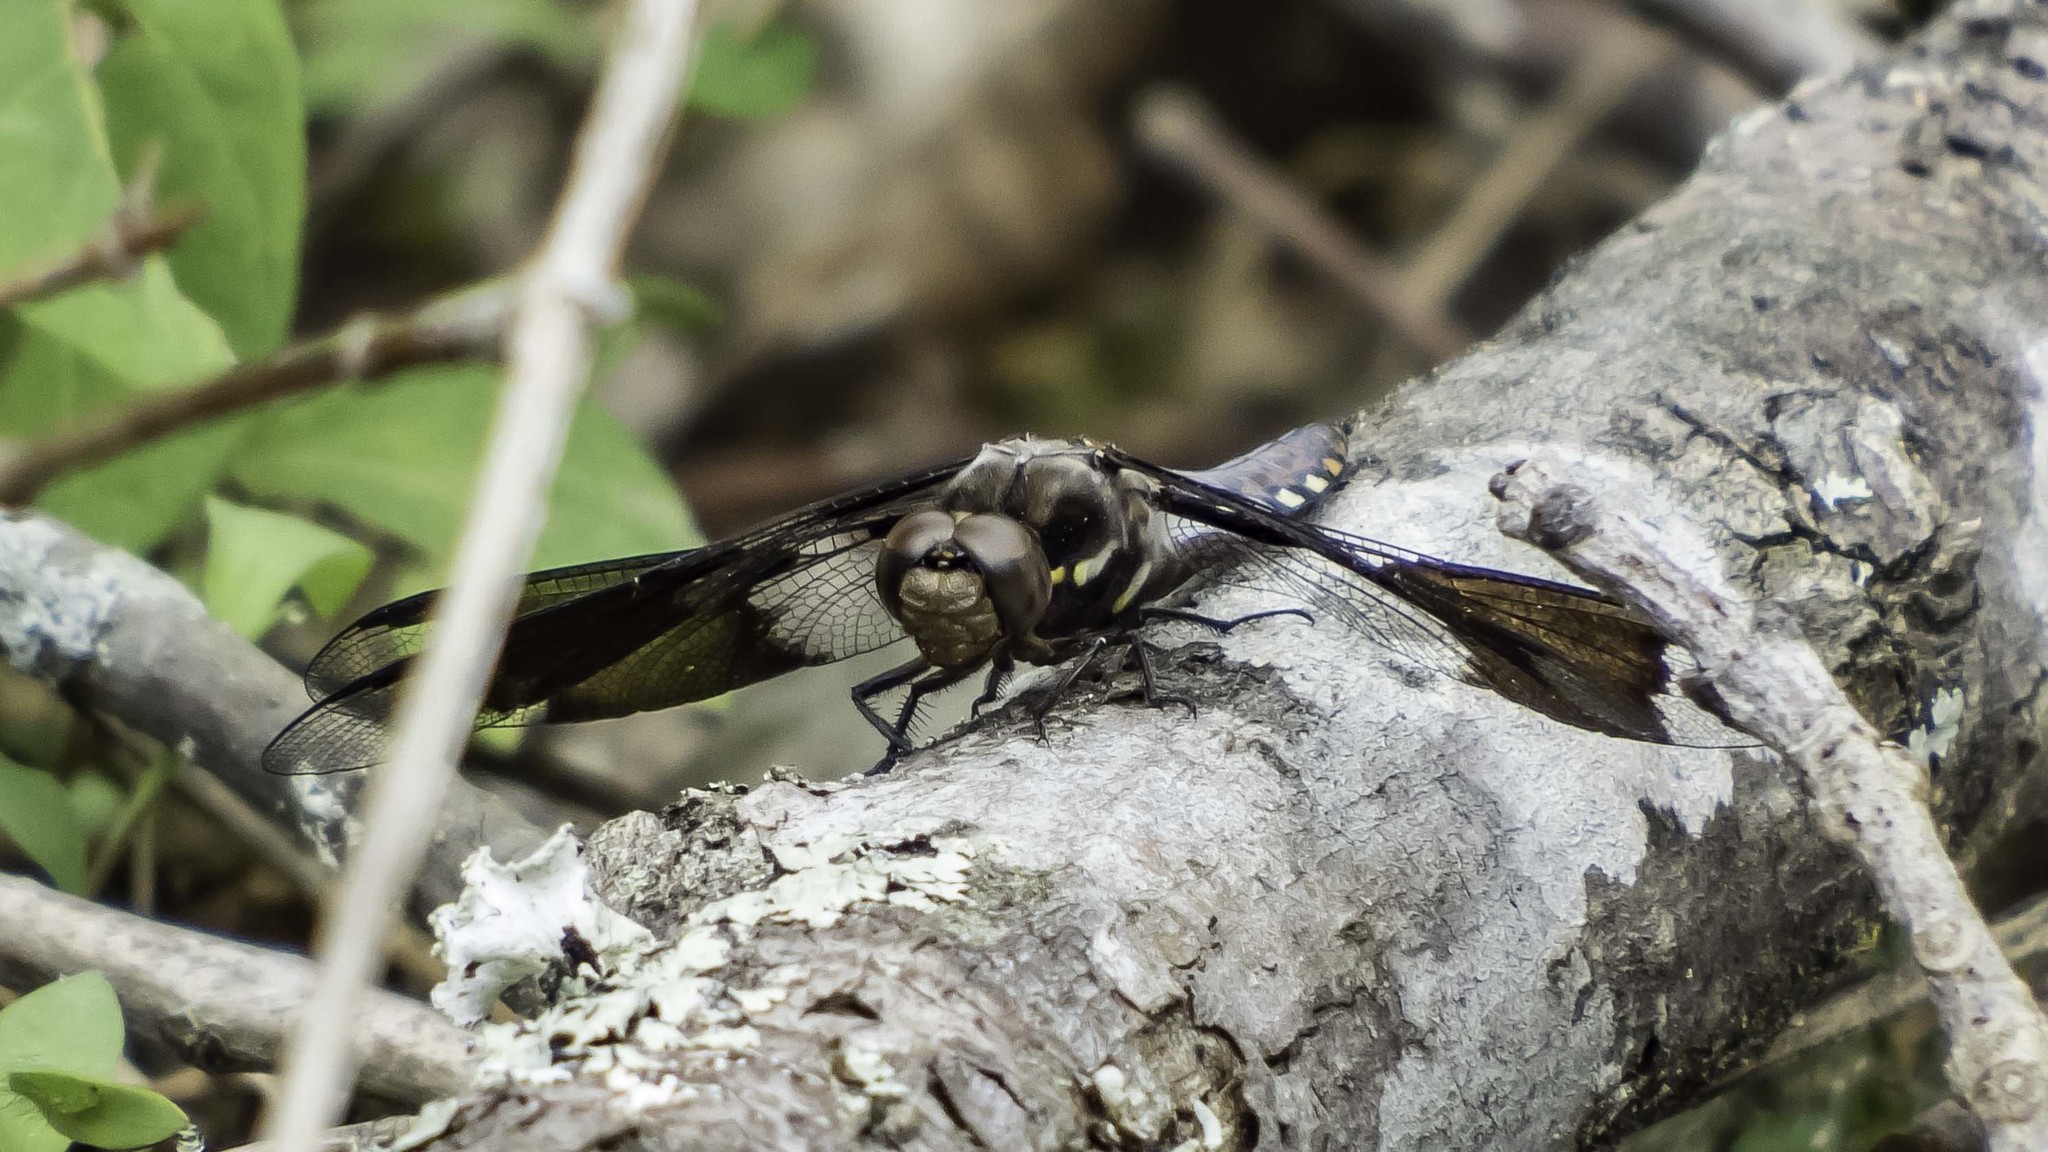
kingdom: Animalia
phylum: Arthropoda
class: Insecta
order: Odonata
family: Libellulidae
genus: Plathemis
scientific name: Plathemis lydia
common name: Common whitetail
